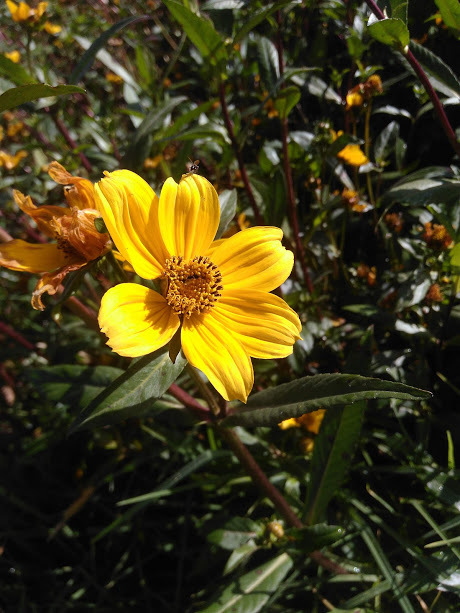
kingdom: Plantae
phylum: Tracheophyta
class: Magnoliopsida
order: Asterales
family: Asteraceae
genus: Bidens
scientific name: Bidens laevis
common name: Larger bur-marigold
